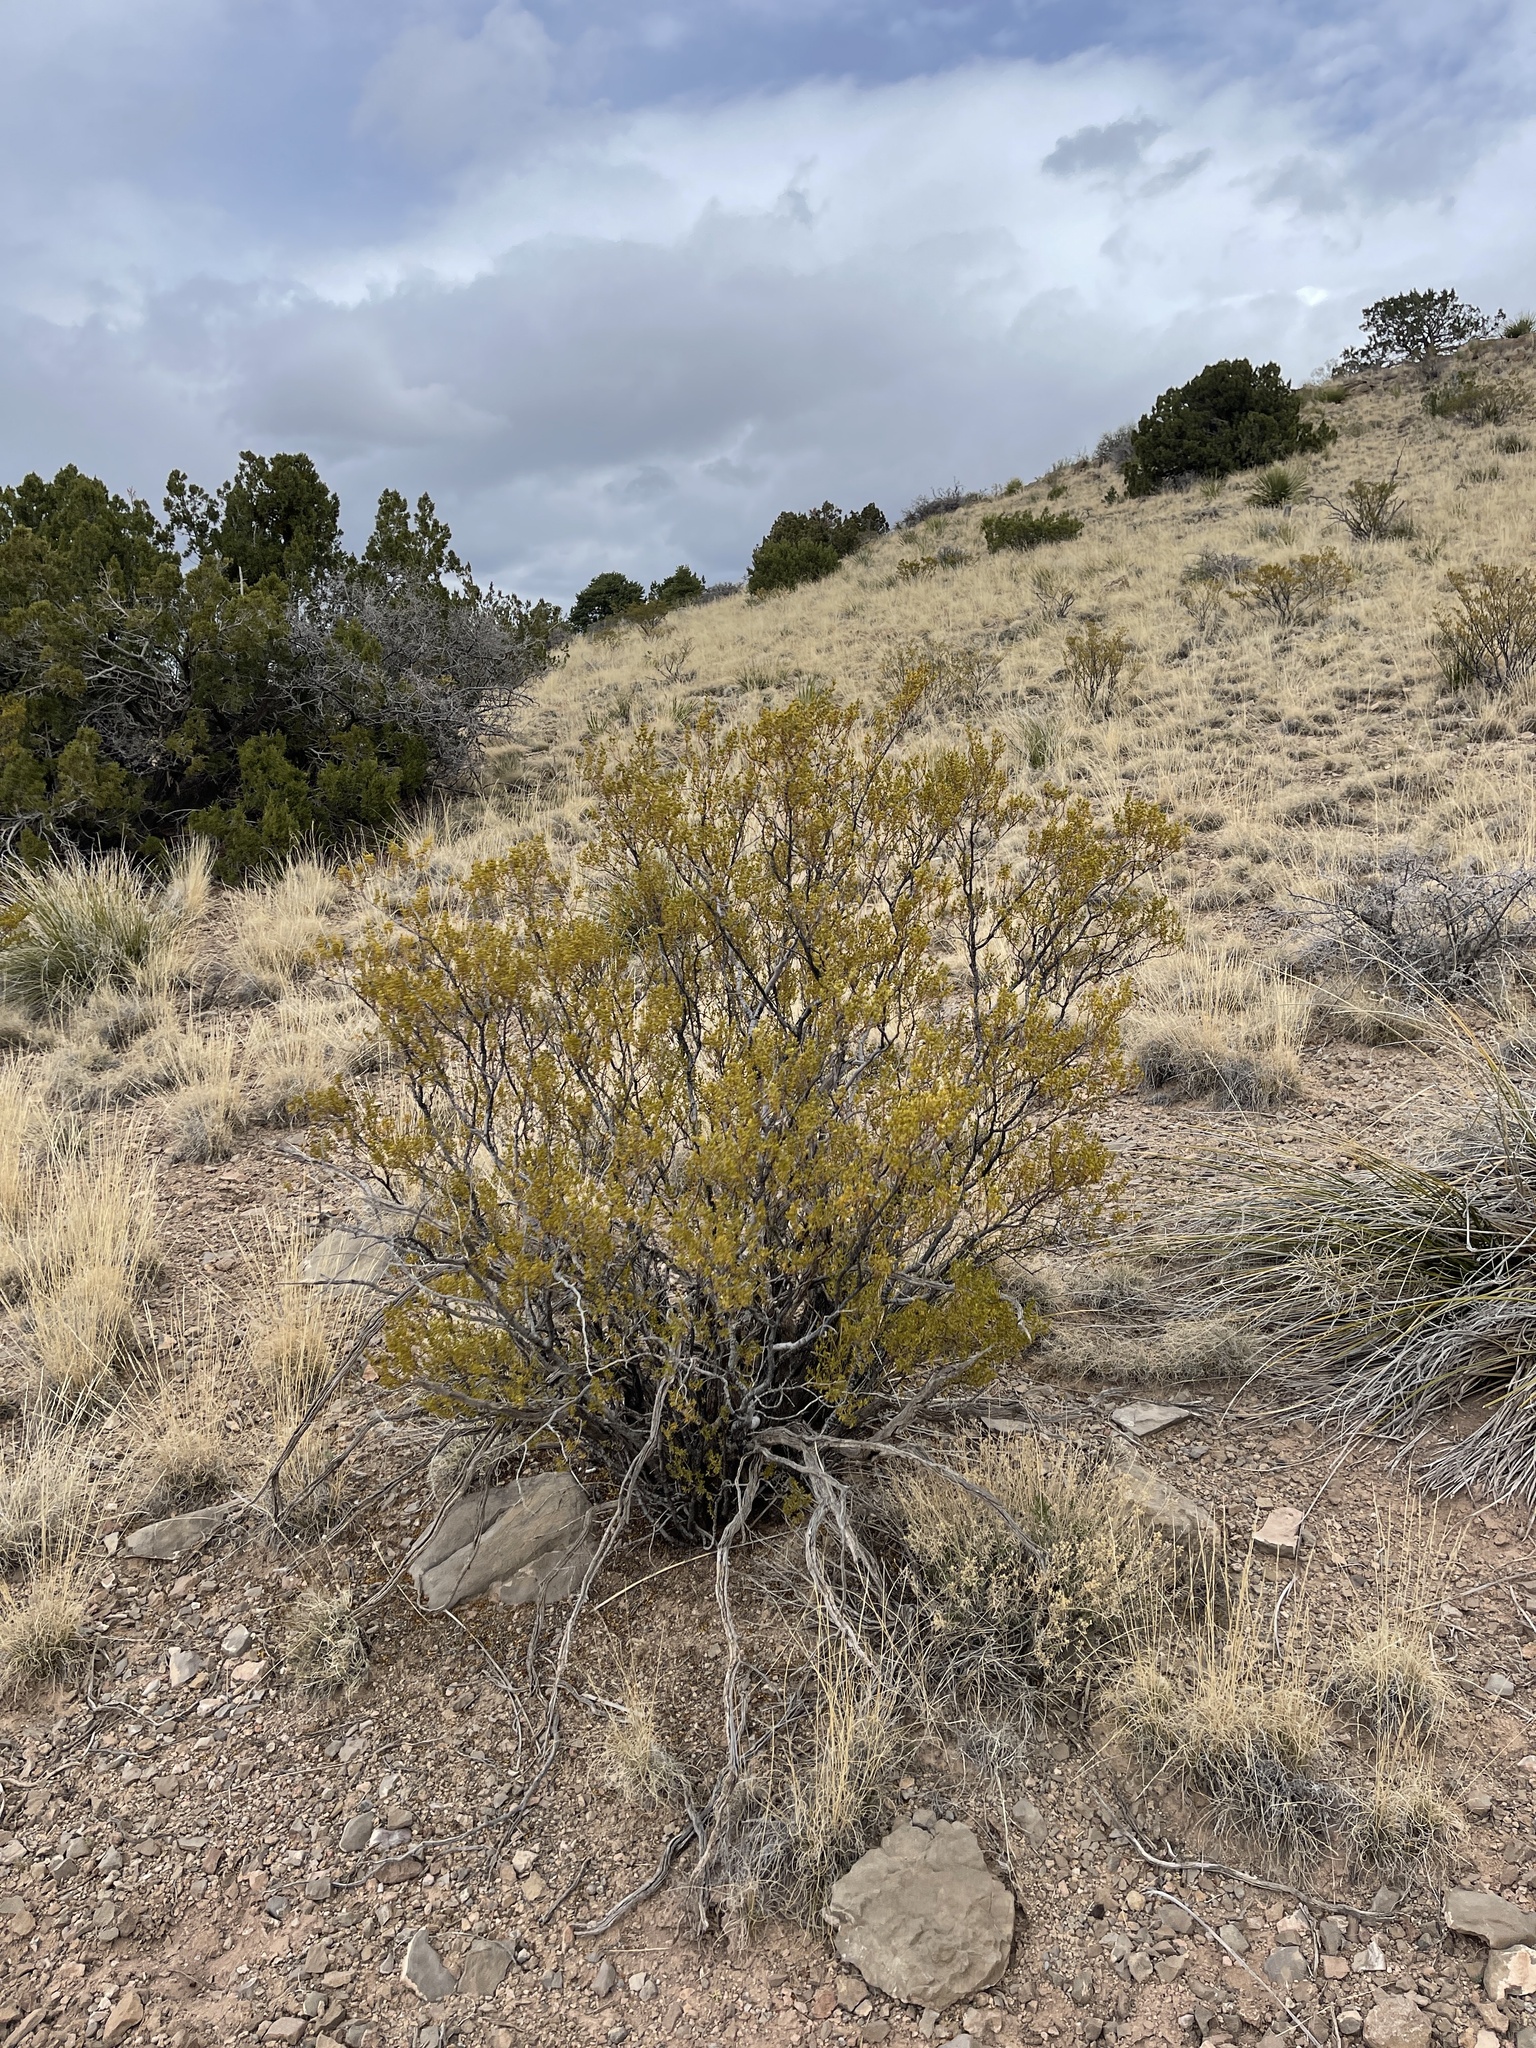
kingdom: Plantae
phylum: Tracheophyta
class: Magnoliopsida
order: Zygophyllales
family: Zygophyllaceae
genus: Larrea
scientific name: Larrea tridentata
